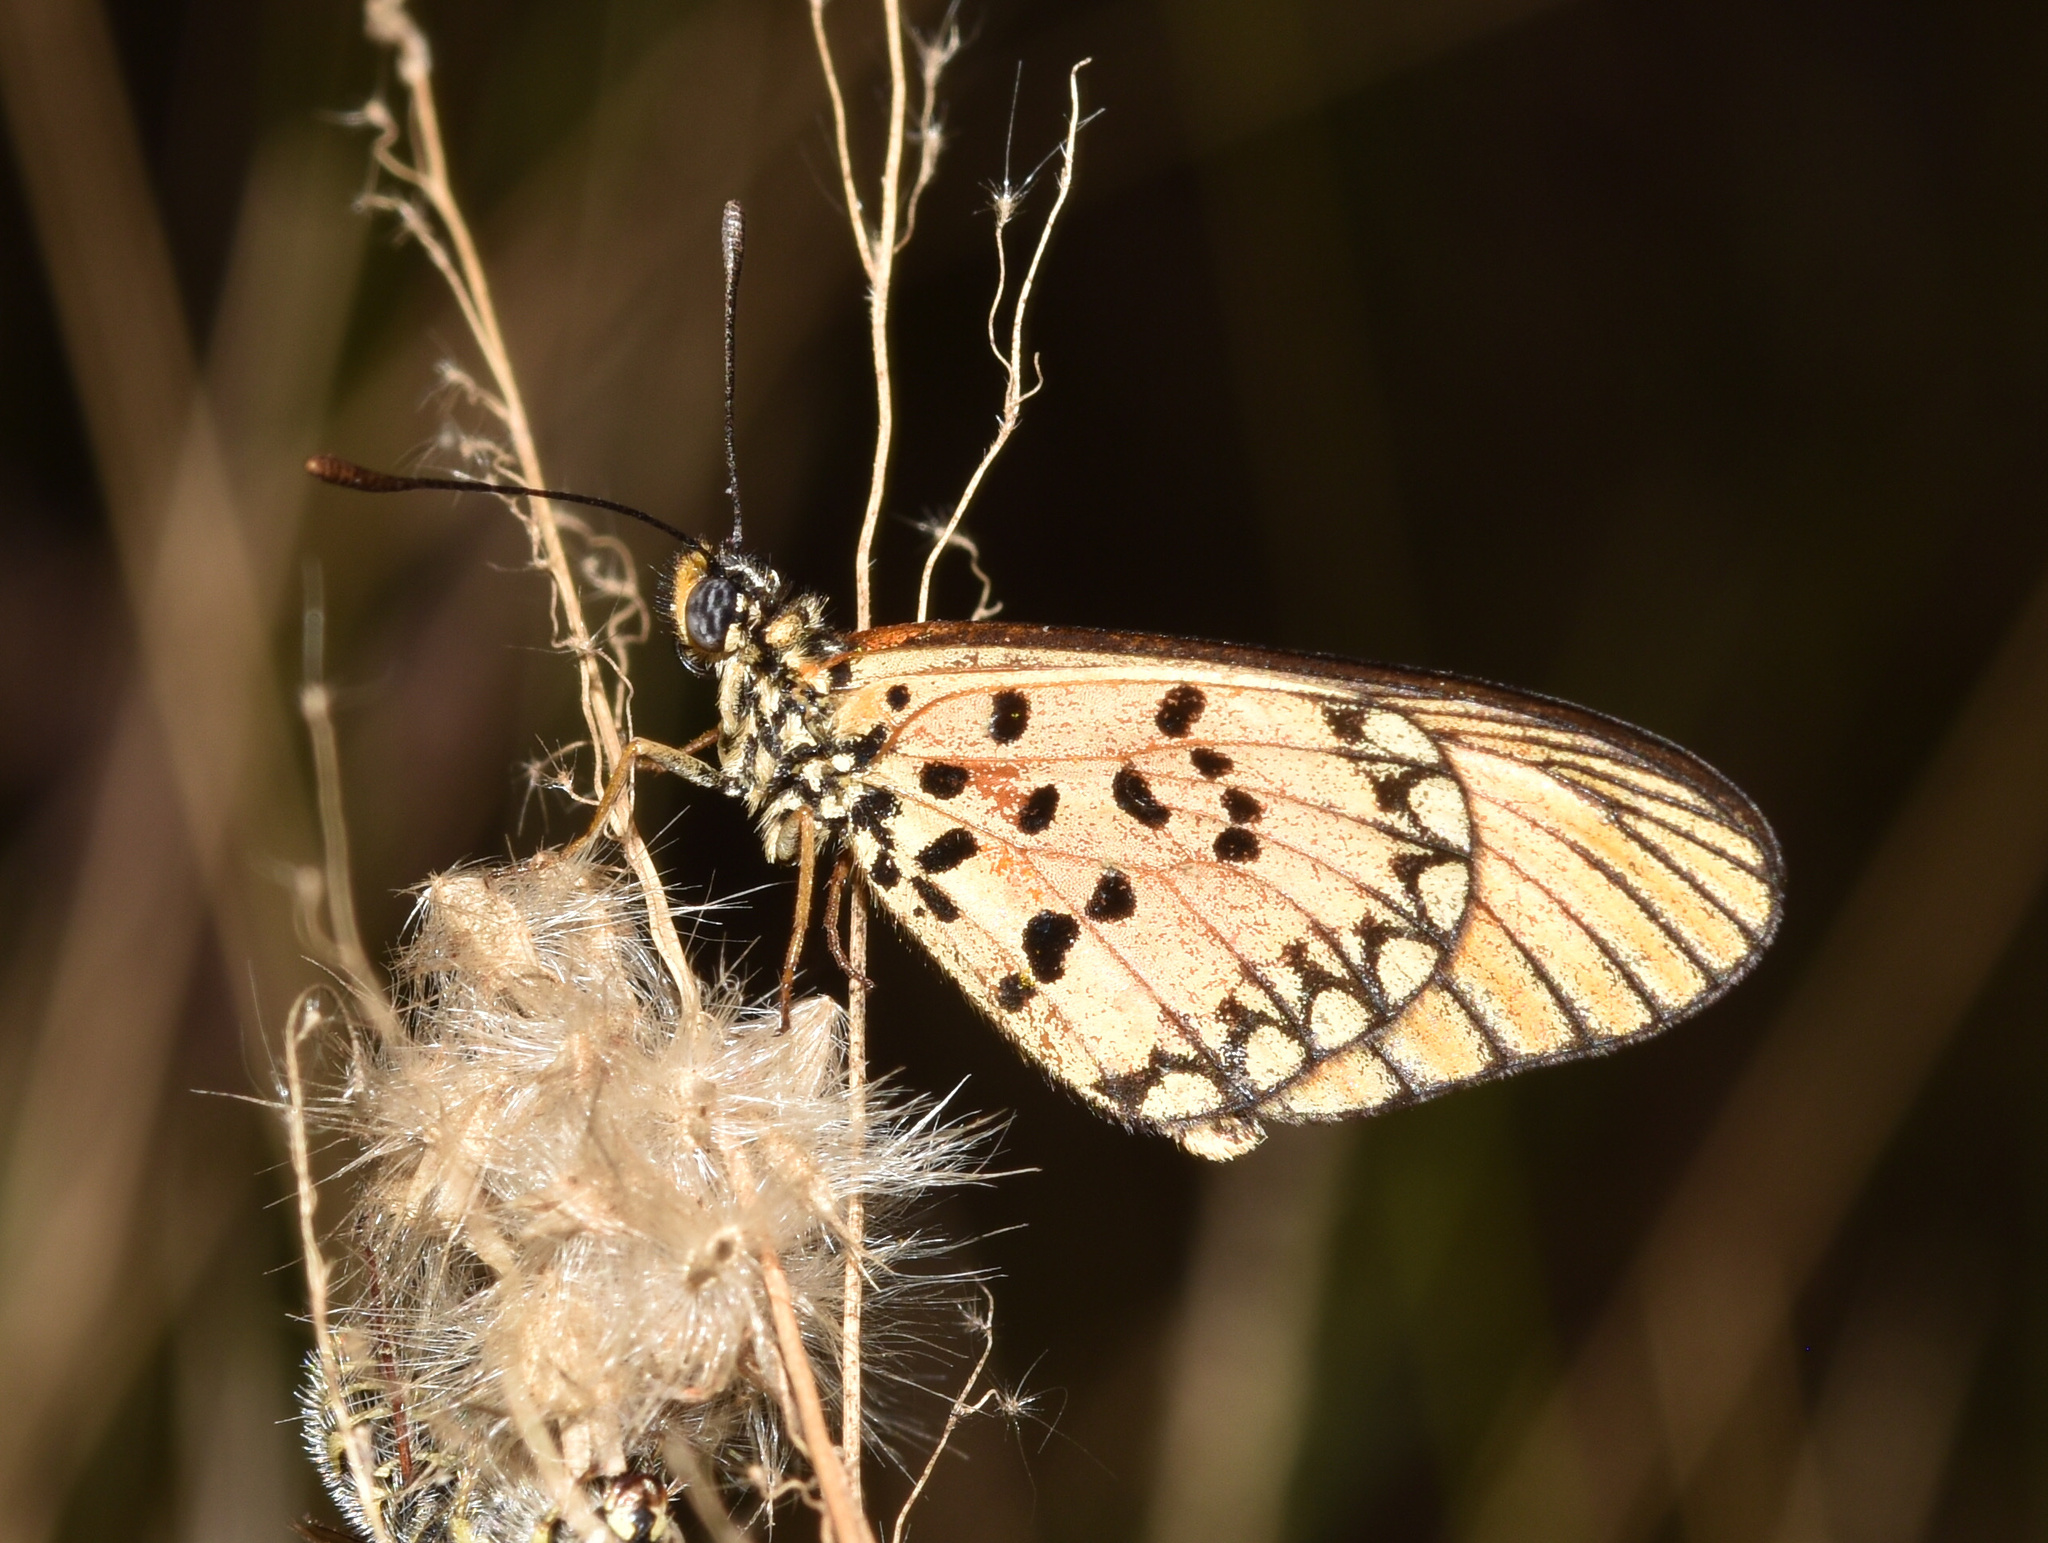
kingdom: Animalia
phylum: Arthropoda
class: Insecta
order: Lepidoptera
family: Nymphalidae
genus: Acraea
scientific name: Acraea Telchinia serena
